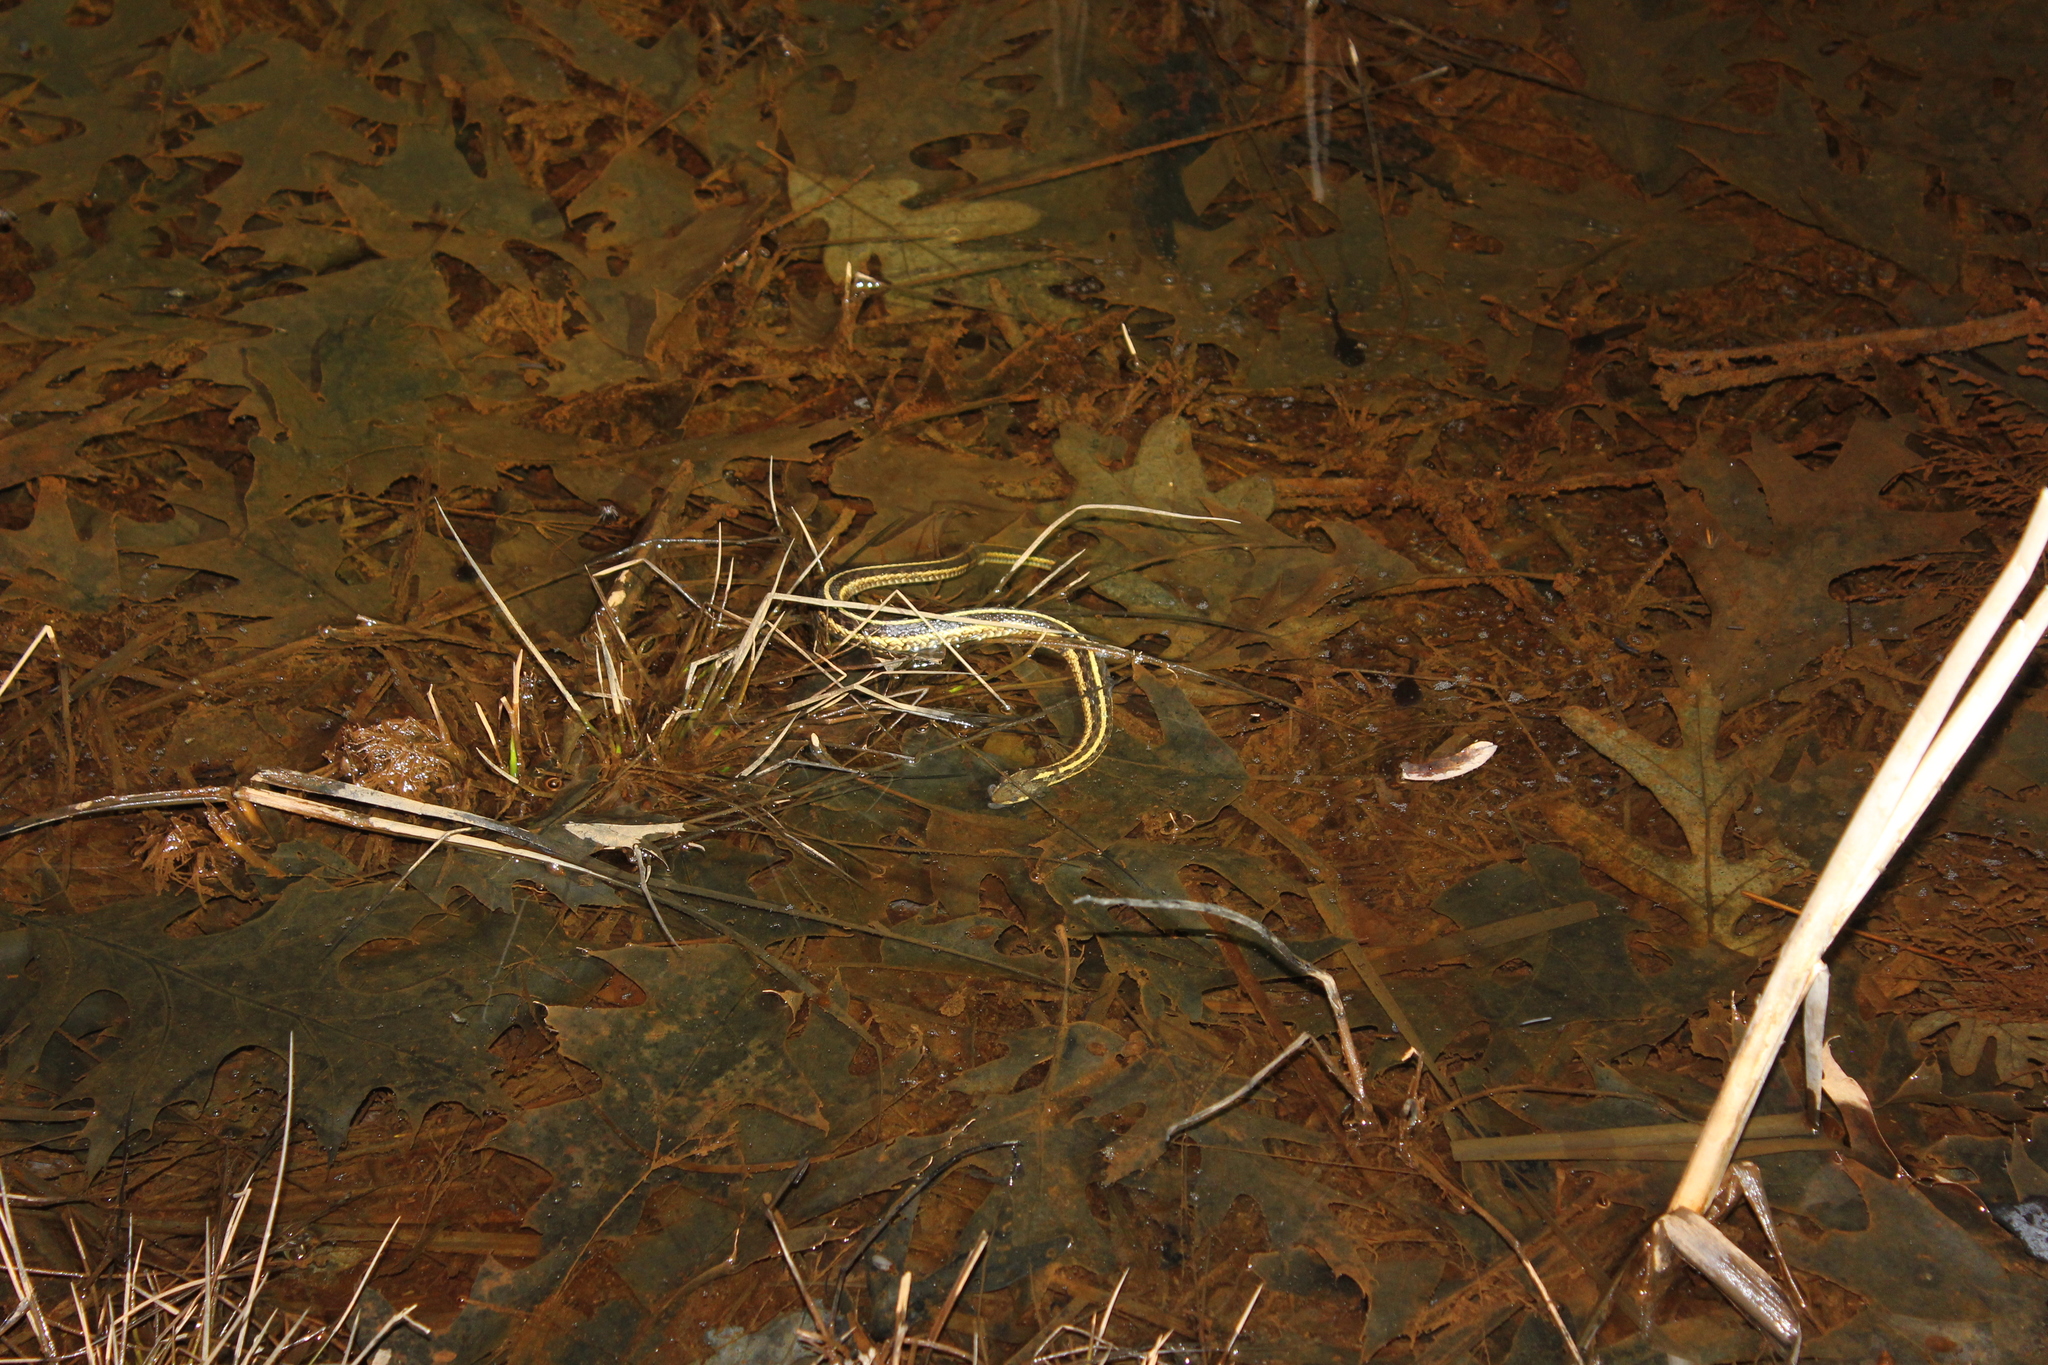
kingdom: Animalia
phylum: Chordata
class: Squamata
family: Colubridae
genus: Thamnophis
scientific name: Thamnophis sirtalis
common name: Common garter snake
